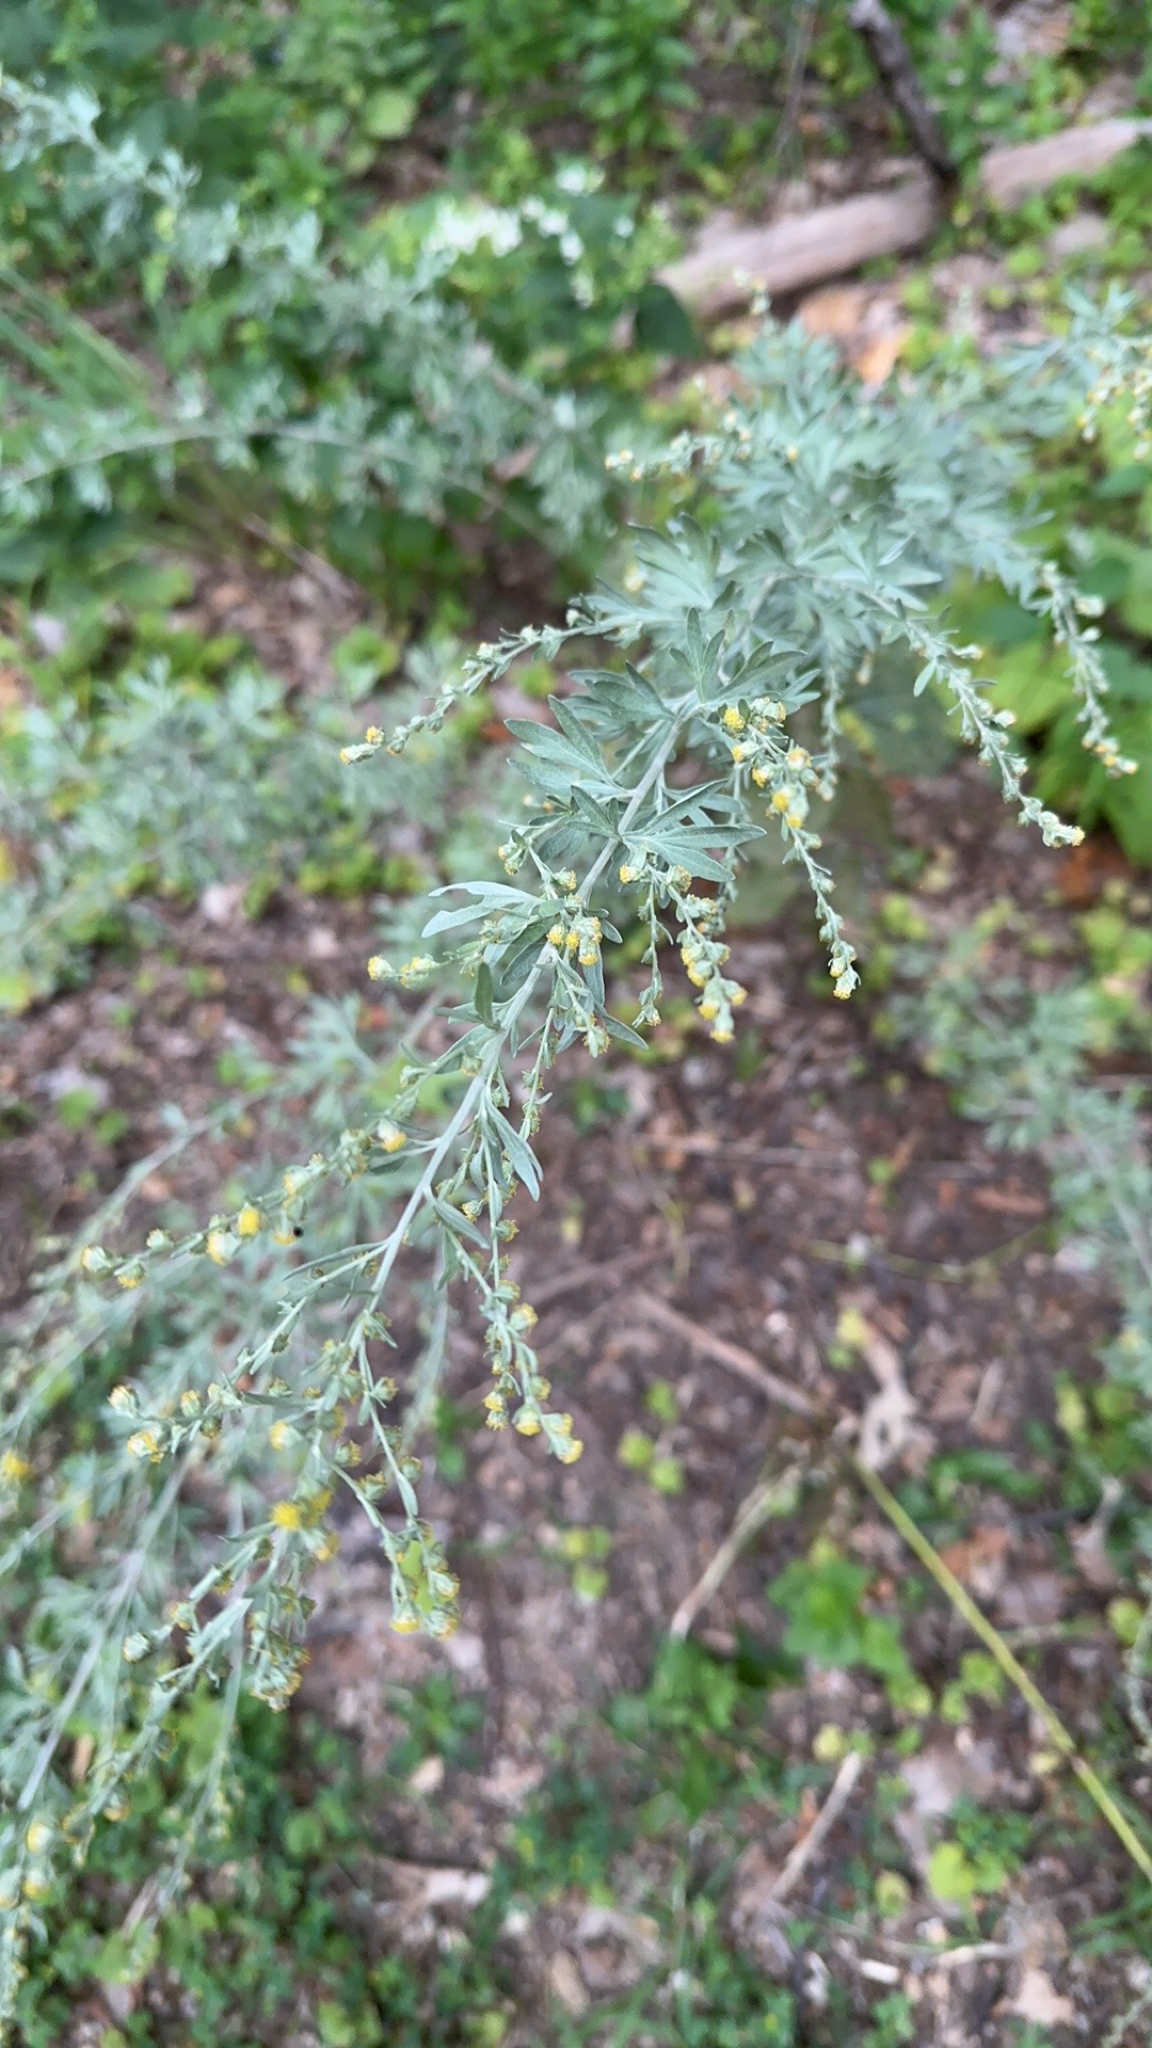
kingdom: Plantae
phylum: Tracheophyta
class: Magnoliopsida
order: Asterales
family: Asteraceae
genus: Artemisia
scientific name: Artemisia absinthium
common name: Wormwood
